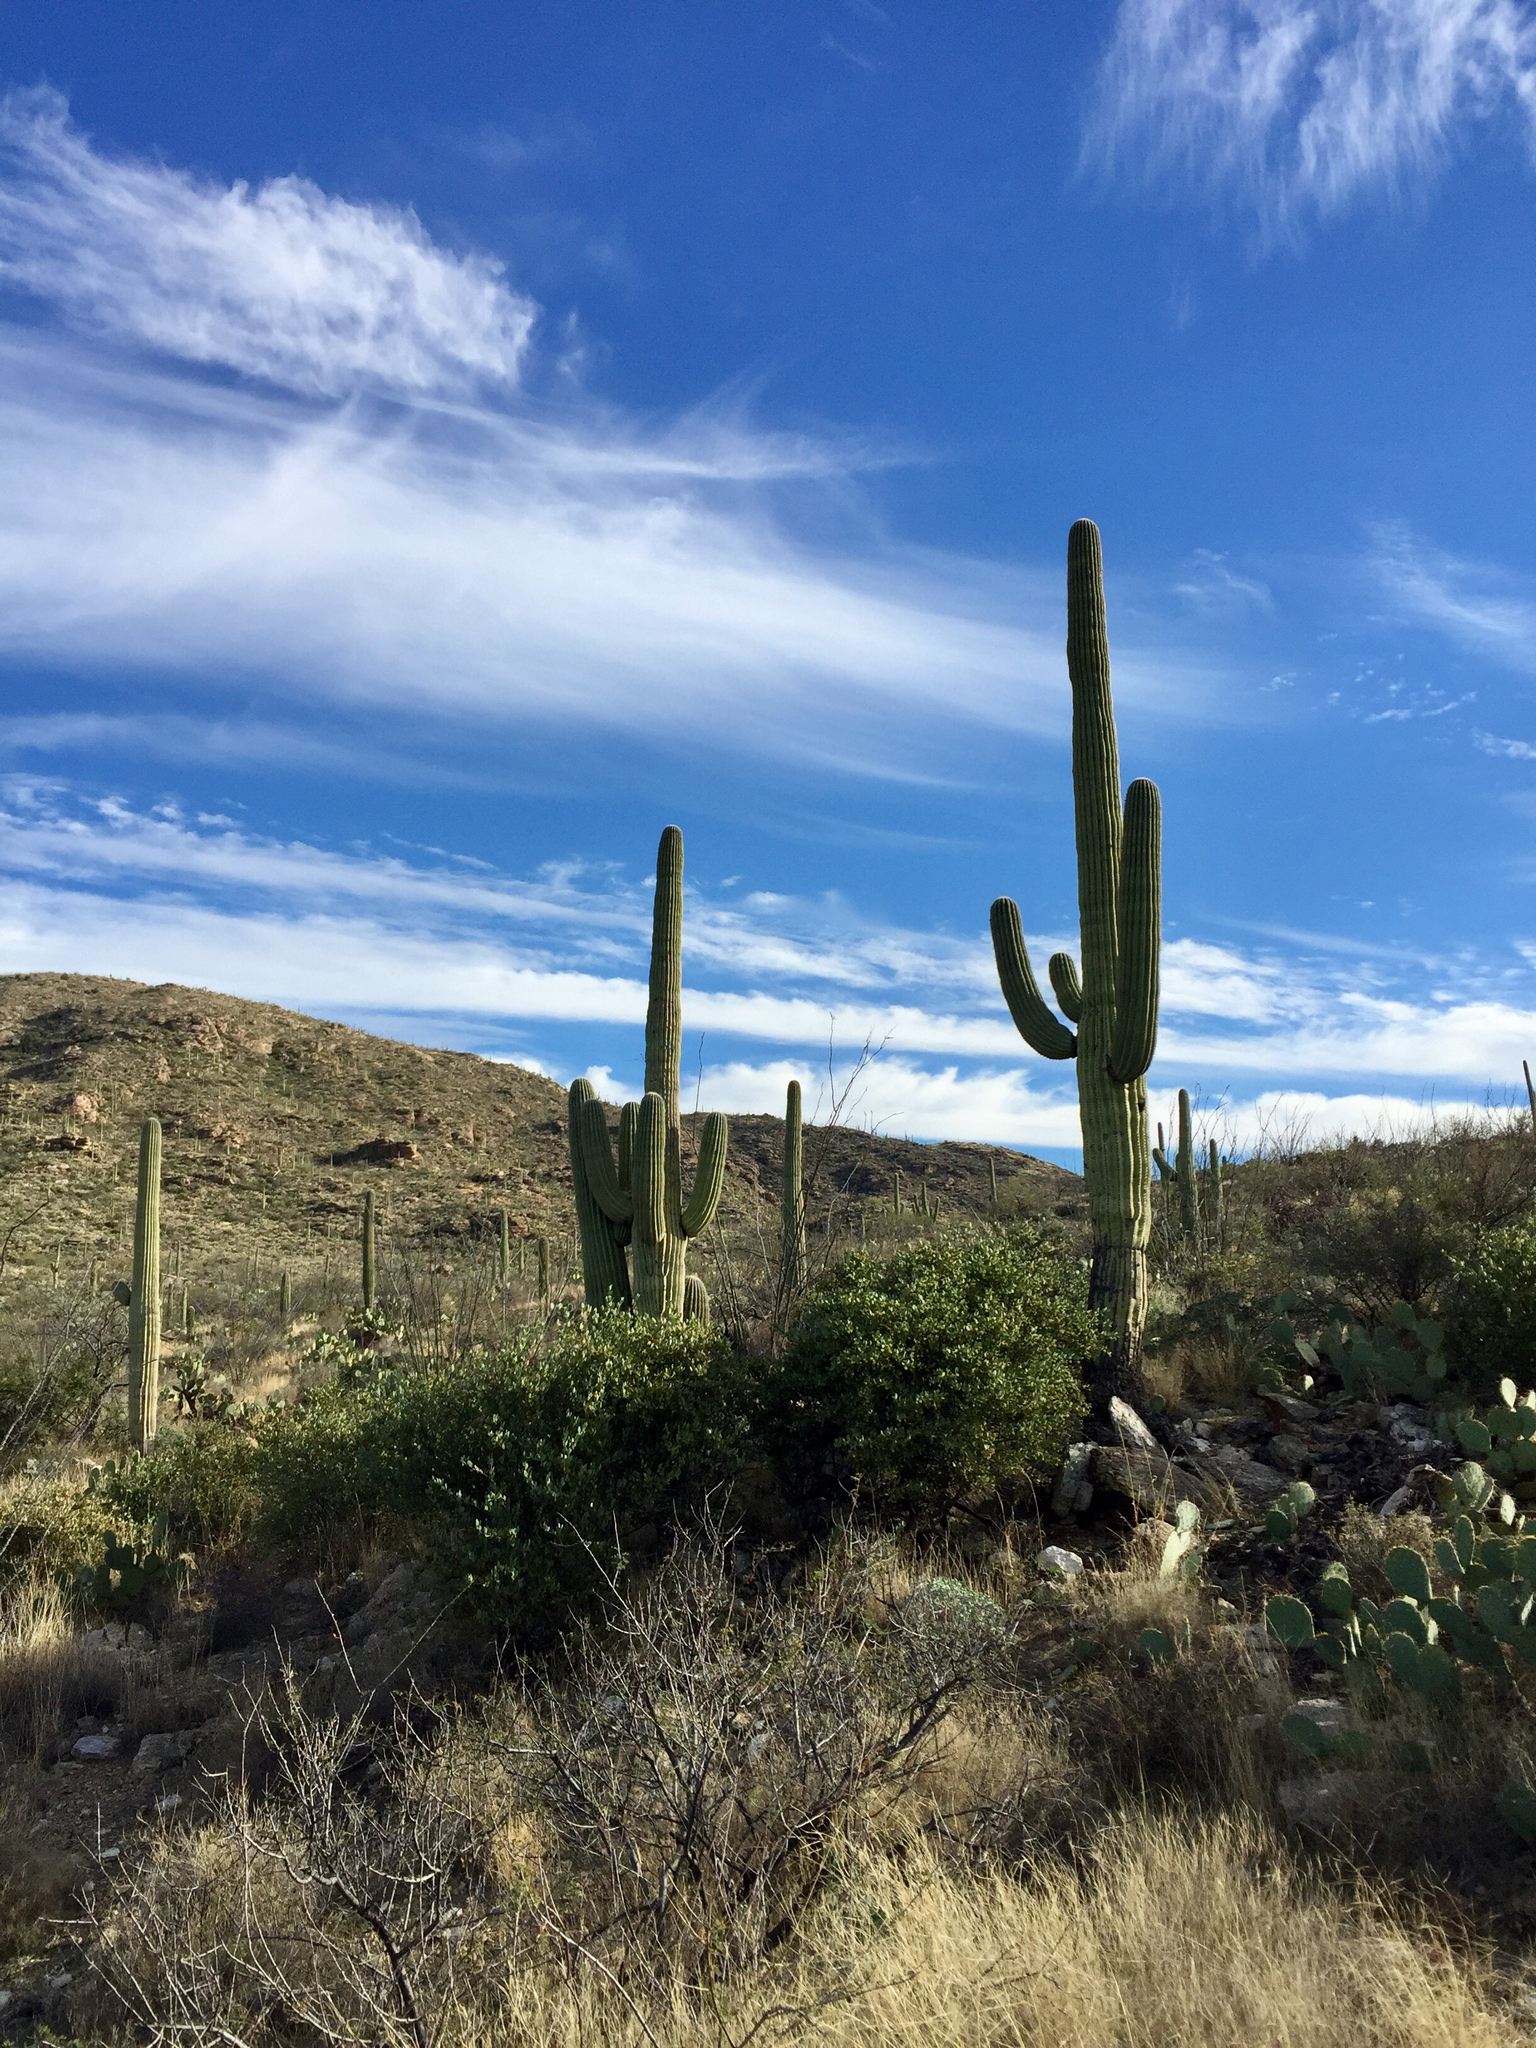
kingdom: Plantae
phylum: Tracheophyta
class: Magnoliopsida
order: Caryophyllales
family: Cactaceae
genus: Carnegiea
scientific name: Carnegiea gigantea
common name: Saguaro
